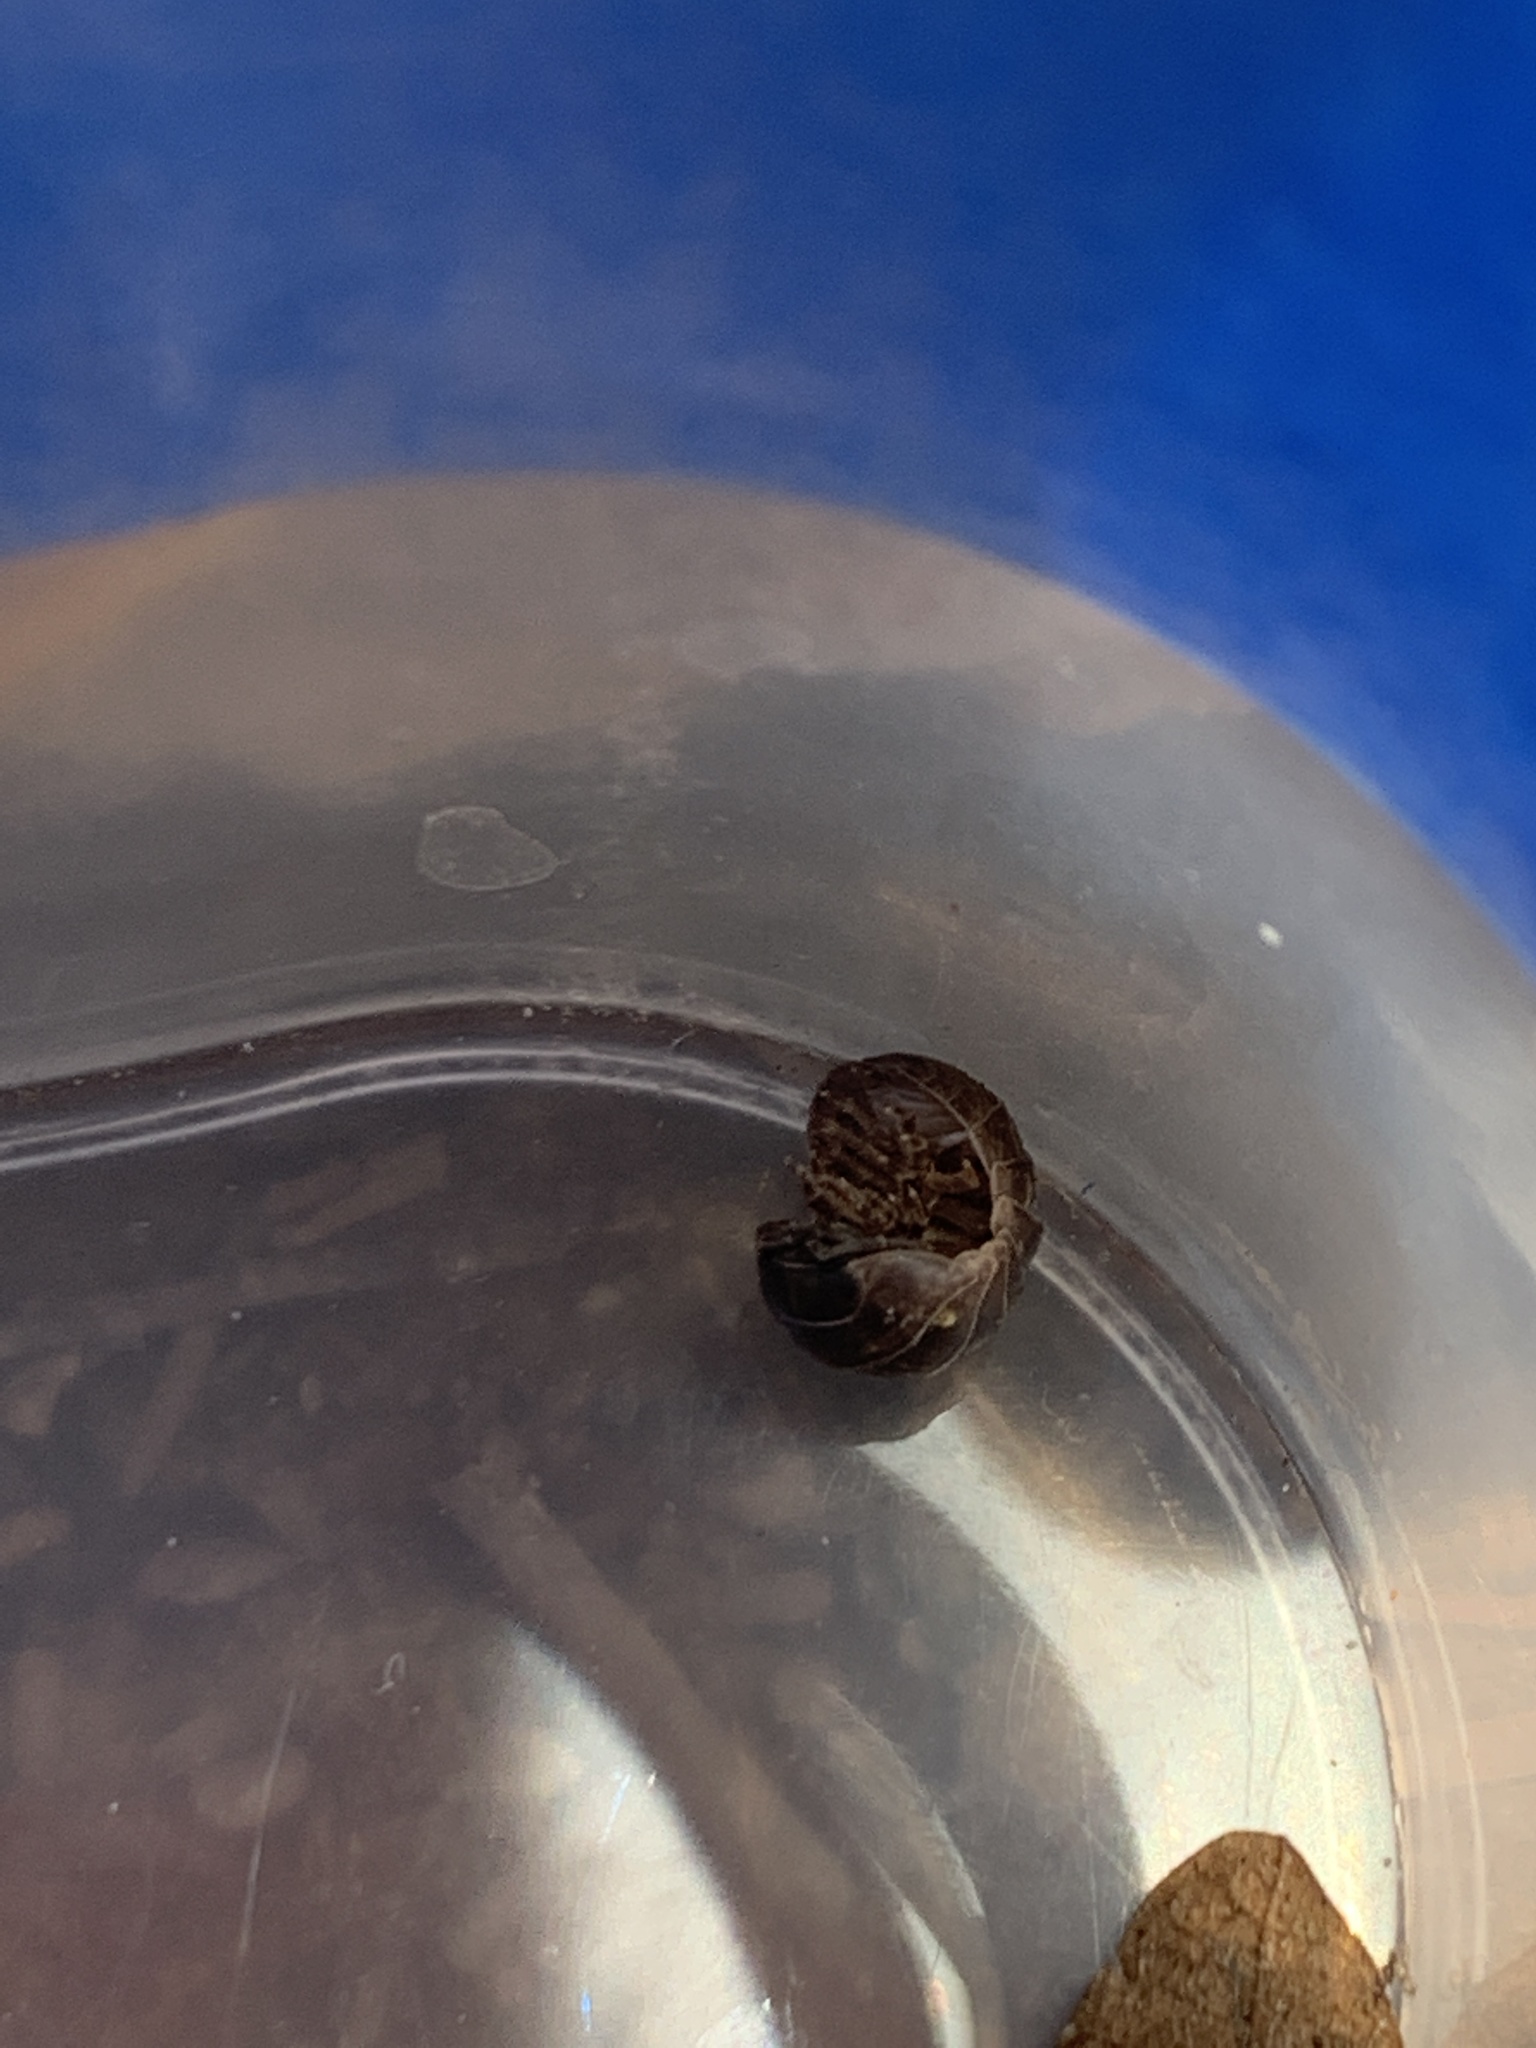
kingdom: Animalia
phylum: Arthropoda
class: Malacostraca
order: Isopoda
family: Armadillidiidae
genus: Armadillidium
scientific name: Armadillidium vulgare
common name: Common pill woodlouse
